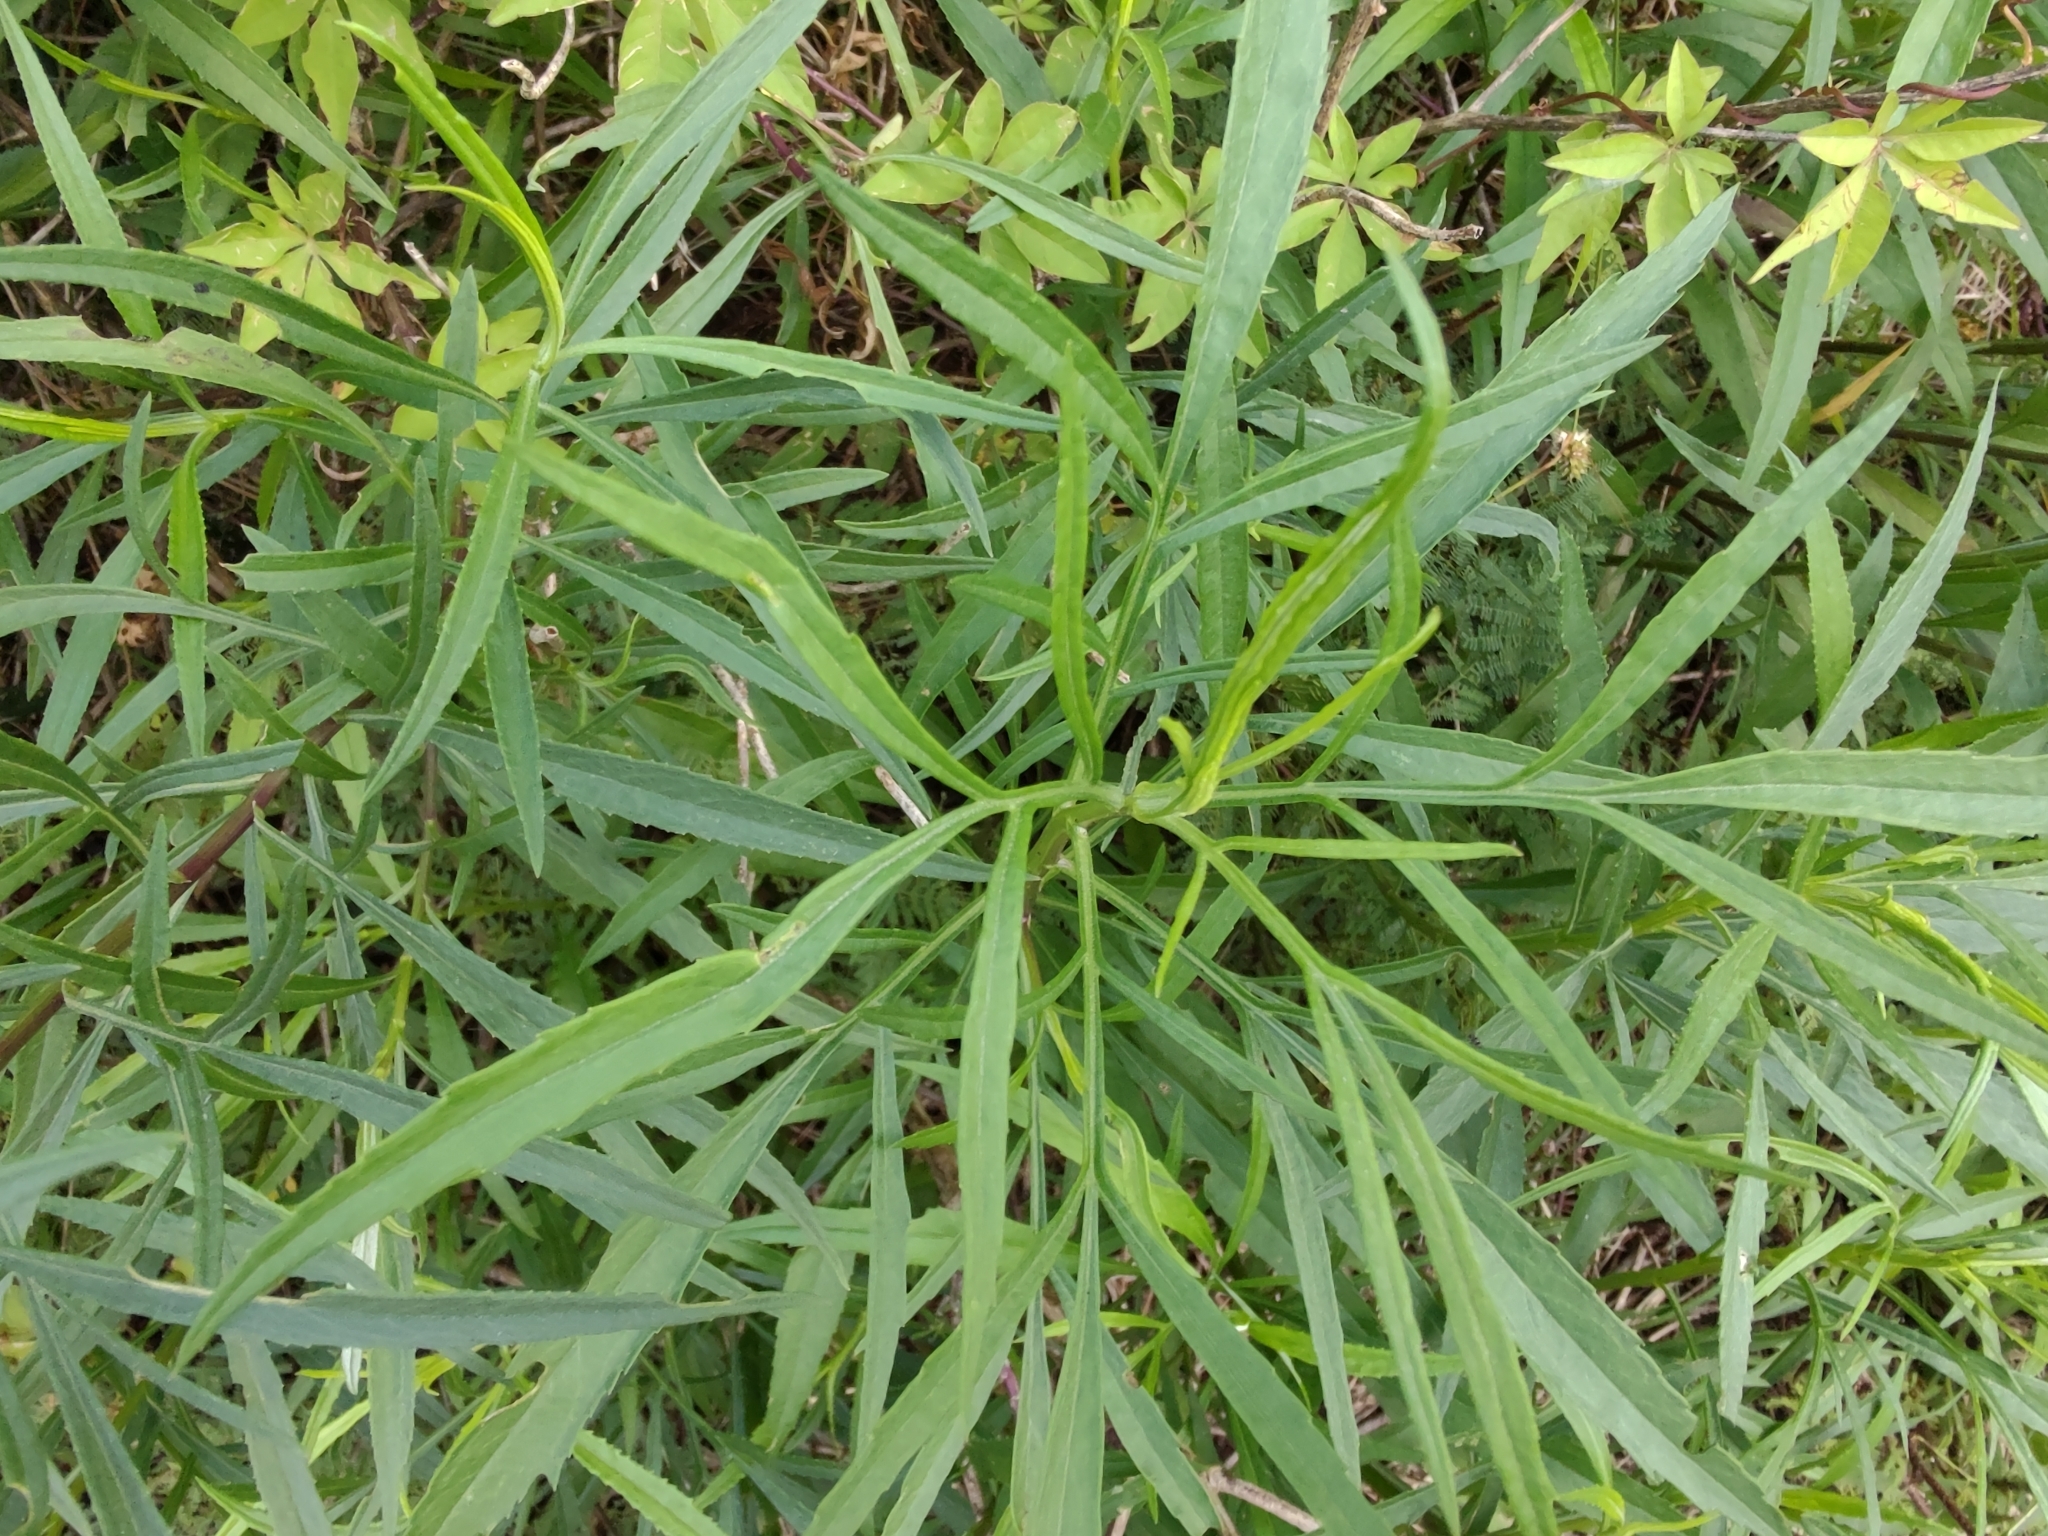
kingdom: Plantae
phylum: Tracheophyta
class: Magnoliopsida
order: Asterales
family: Asteraceae
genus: Senecio
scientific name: Senecio brasiliensis
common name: Hemp-leaf ragwort
